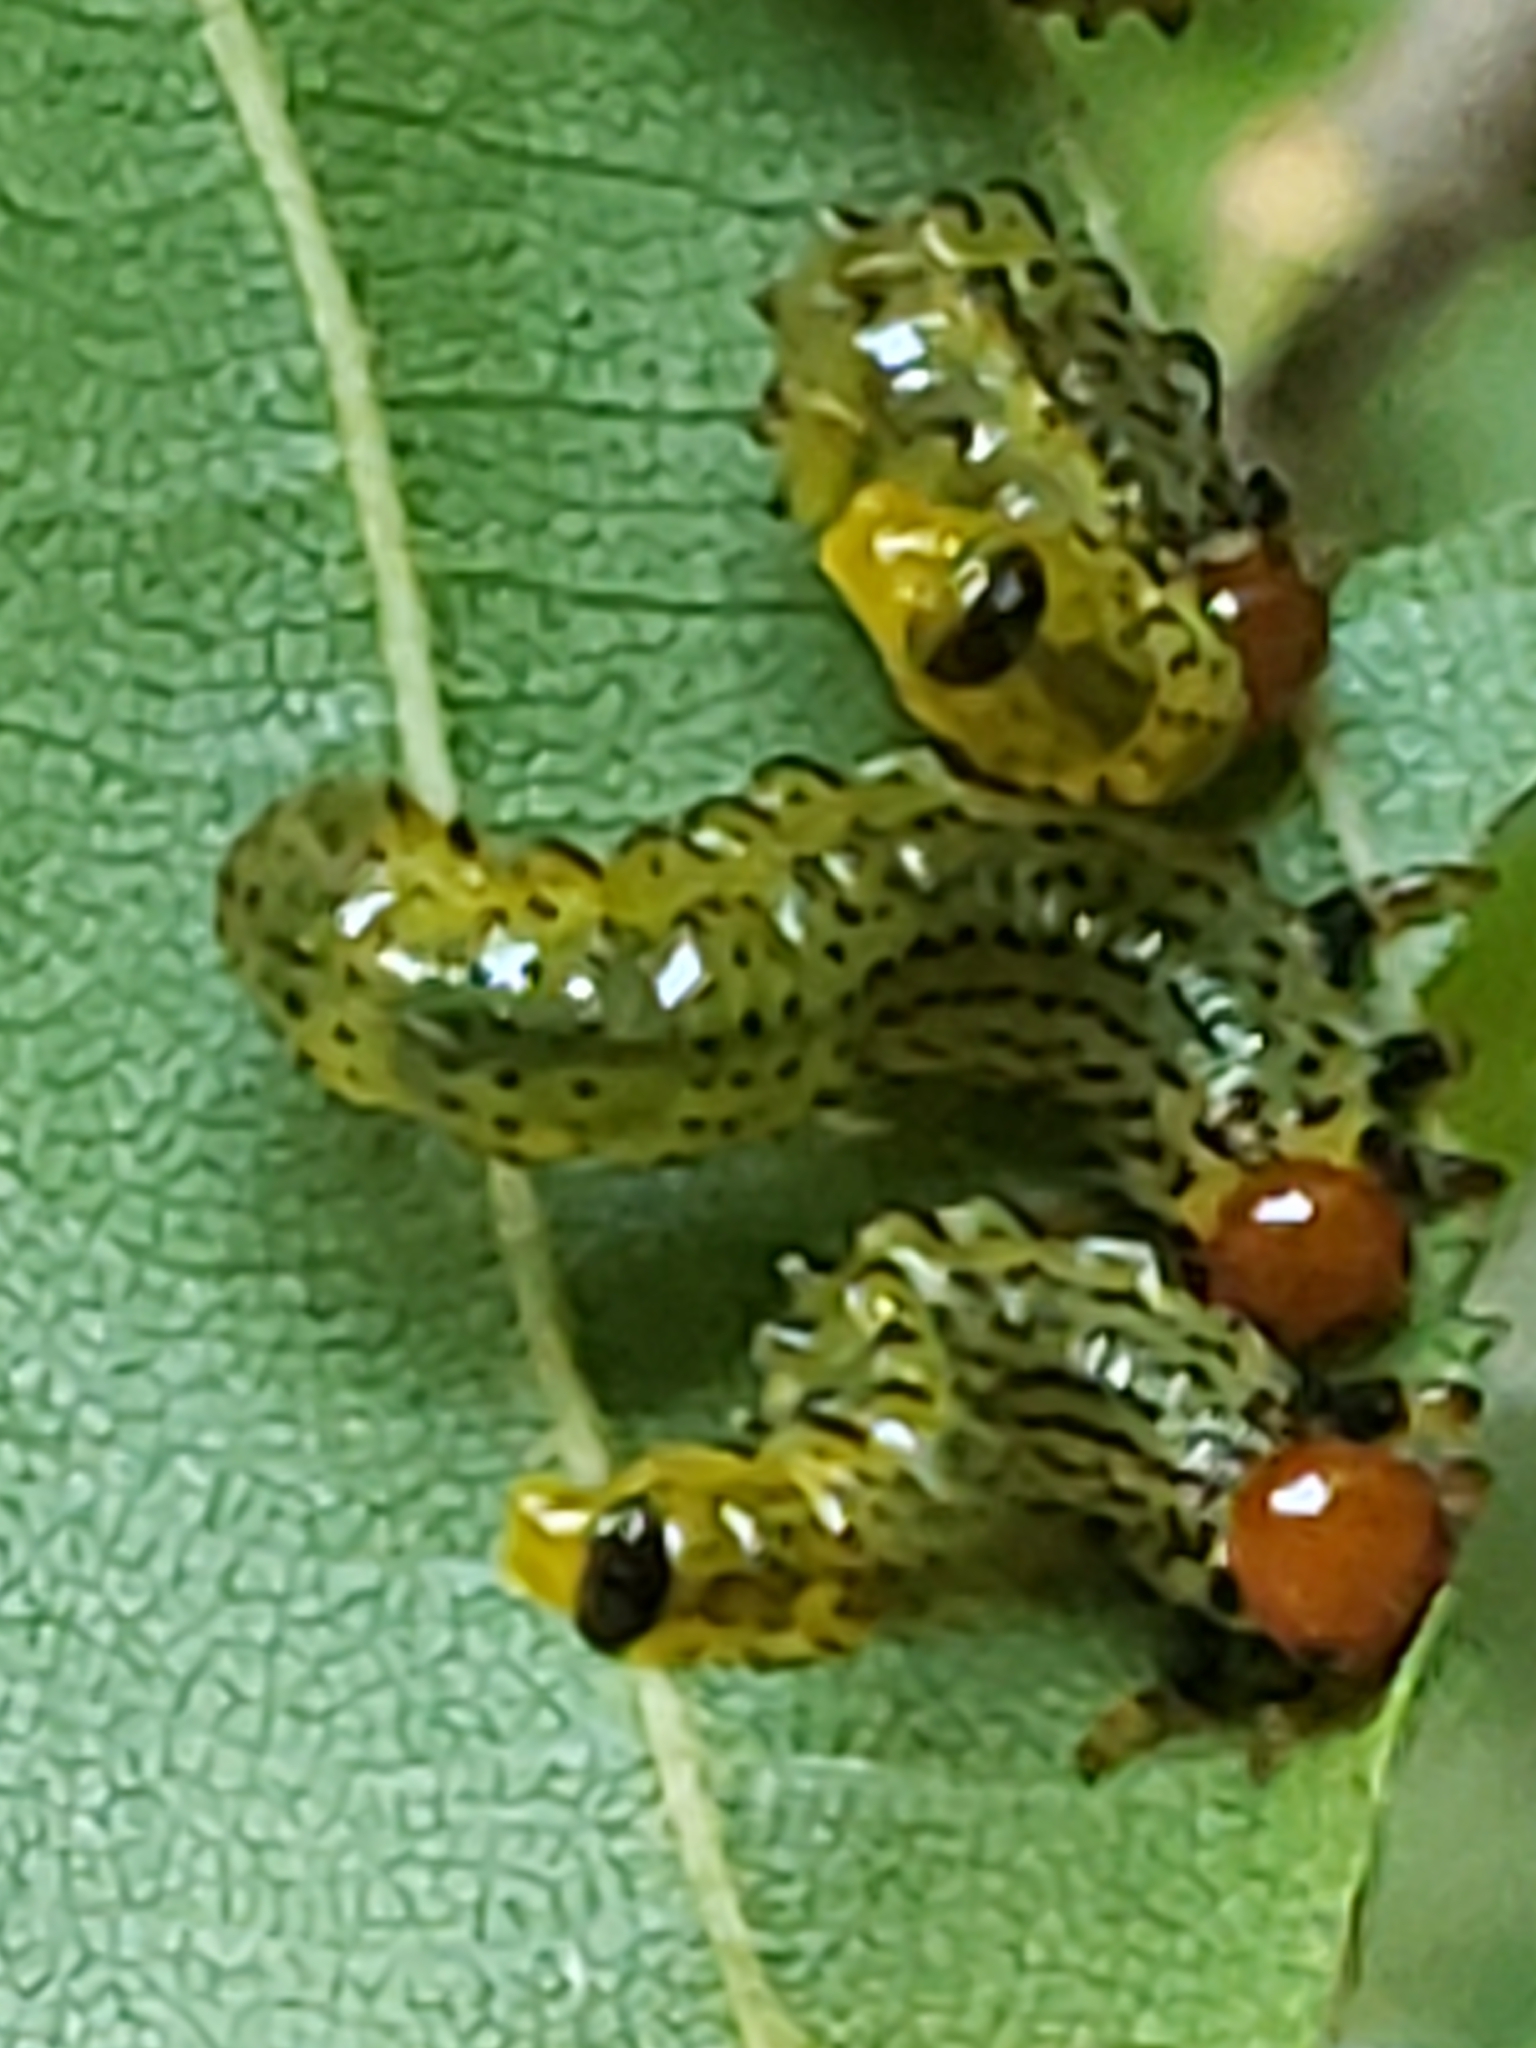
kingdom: Animalia
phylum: Arthropoda
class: Insecta
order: Hymenoptera
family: Argidae
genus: Arge
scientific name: Arge pectoralis
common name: Birch sawfly
